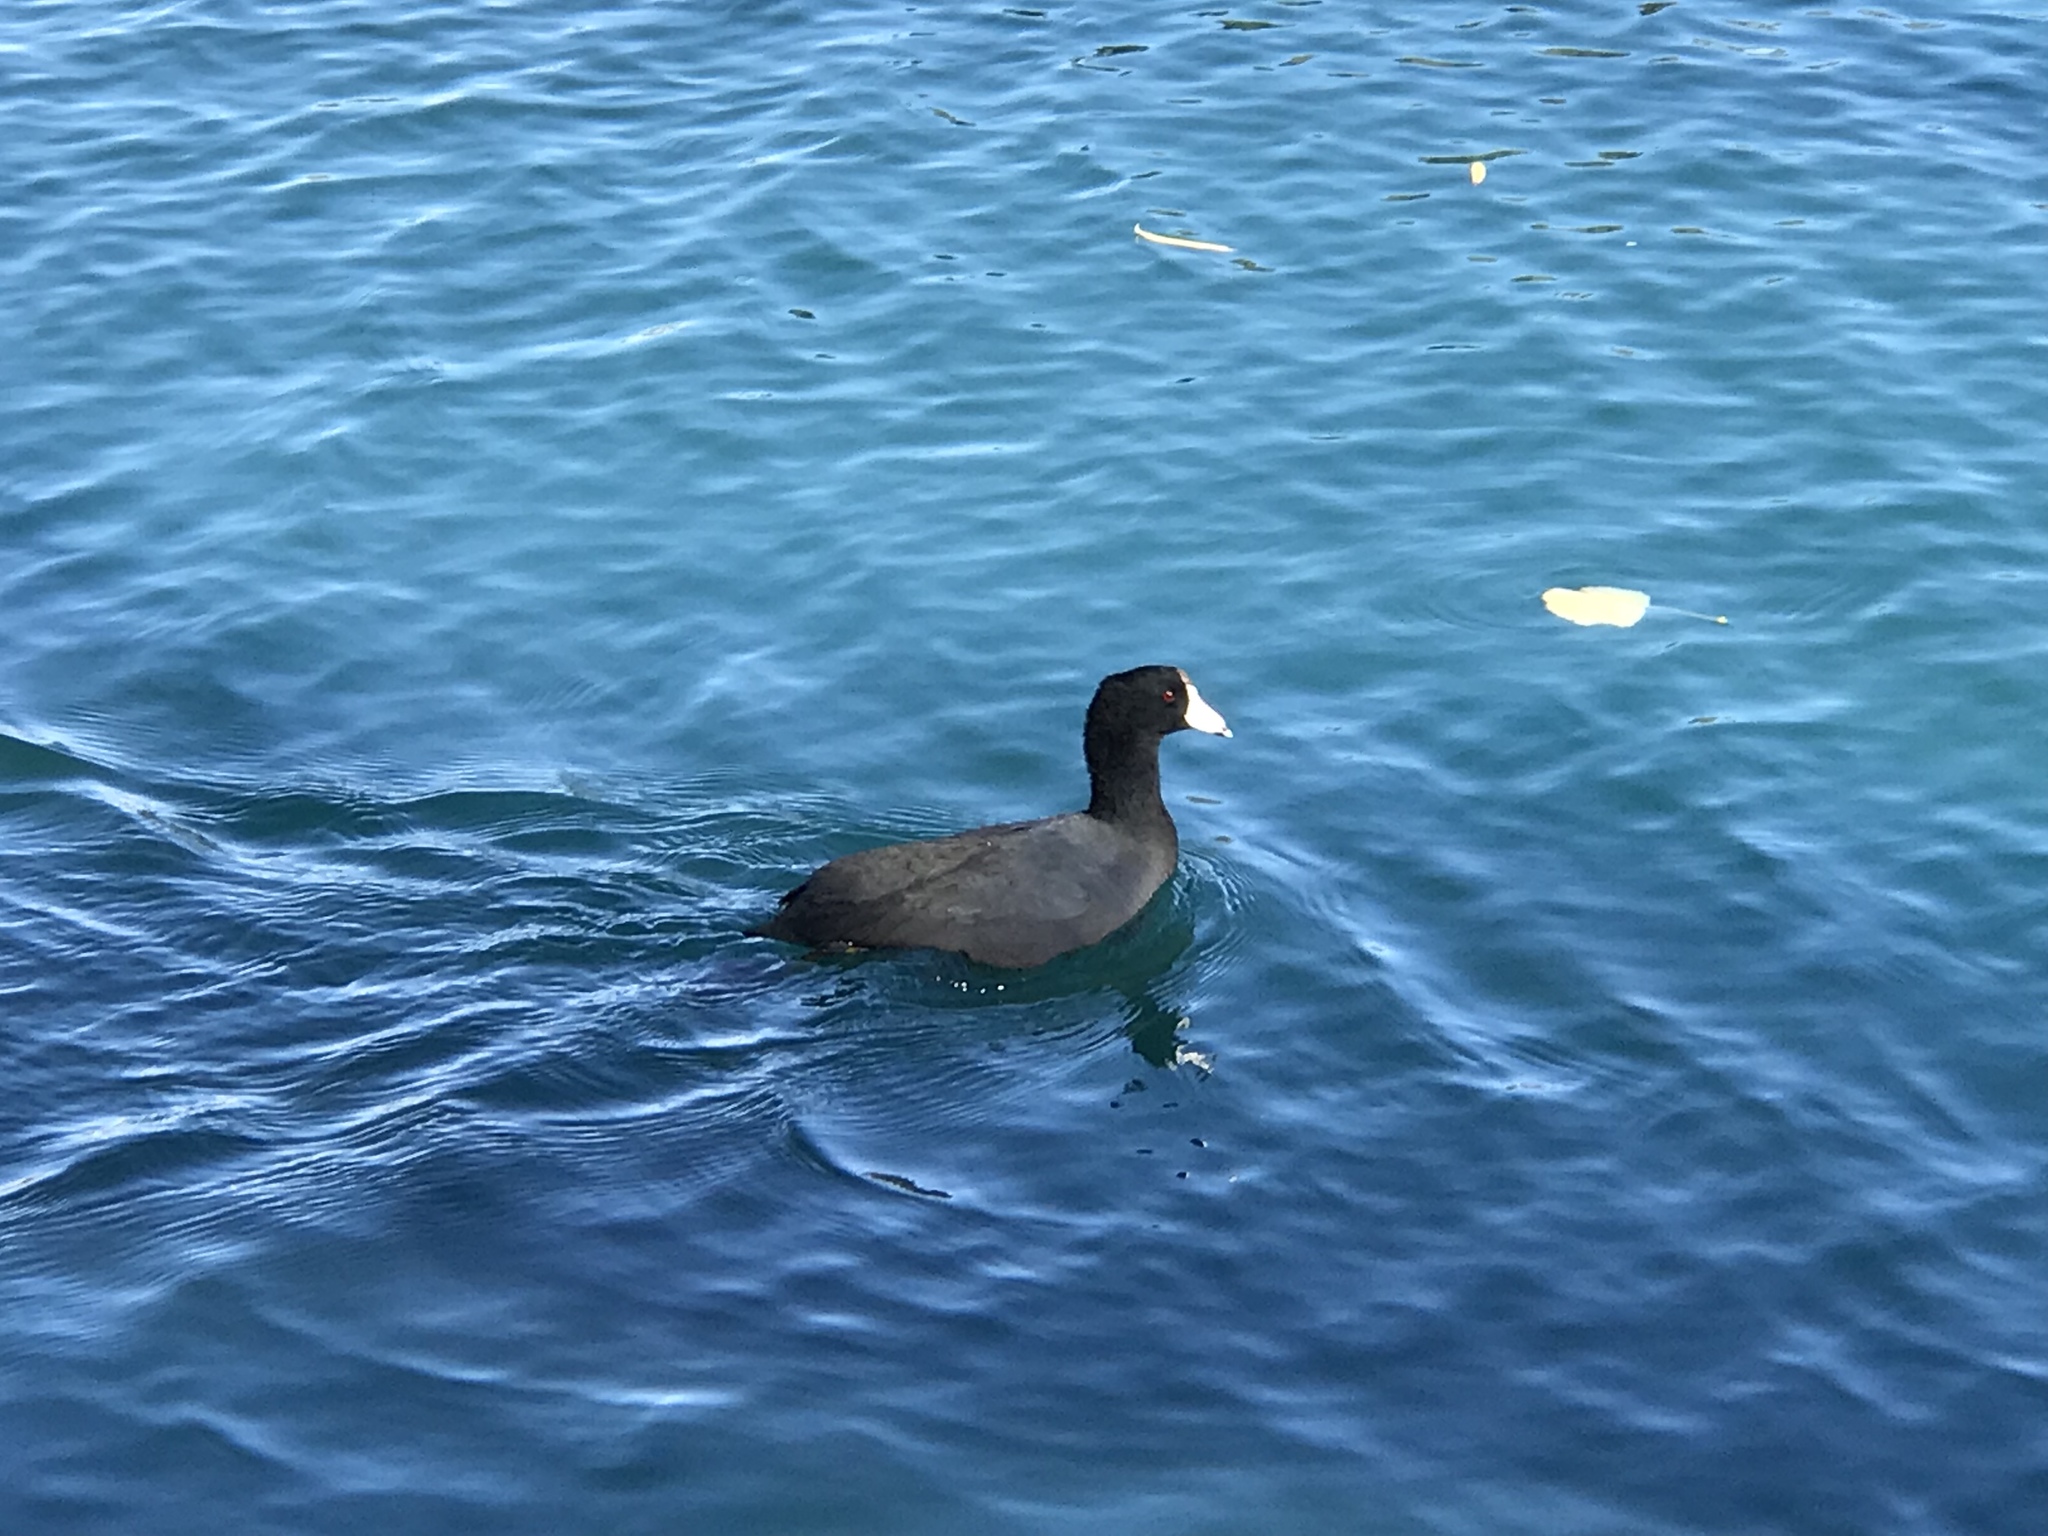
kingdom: Animalia
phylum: Chordata
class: Aves
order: Gruiformes
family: Rallidae
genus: Fulica
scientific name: Fulica americana
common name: American coot
